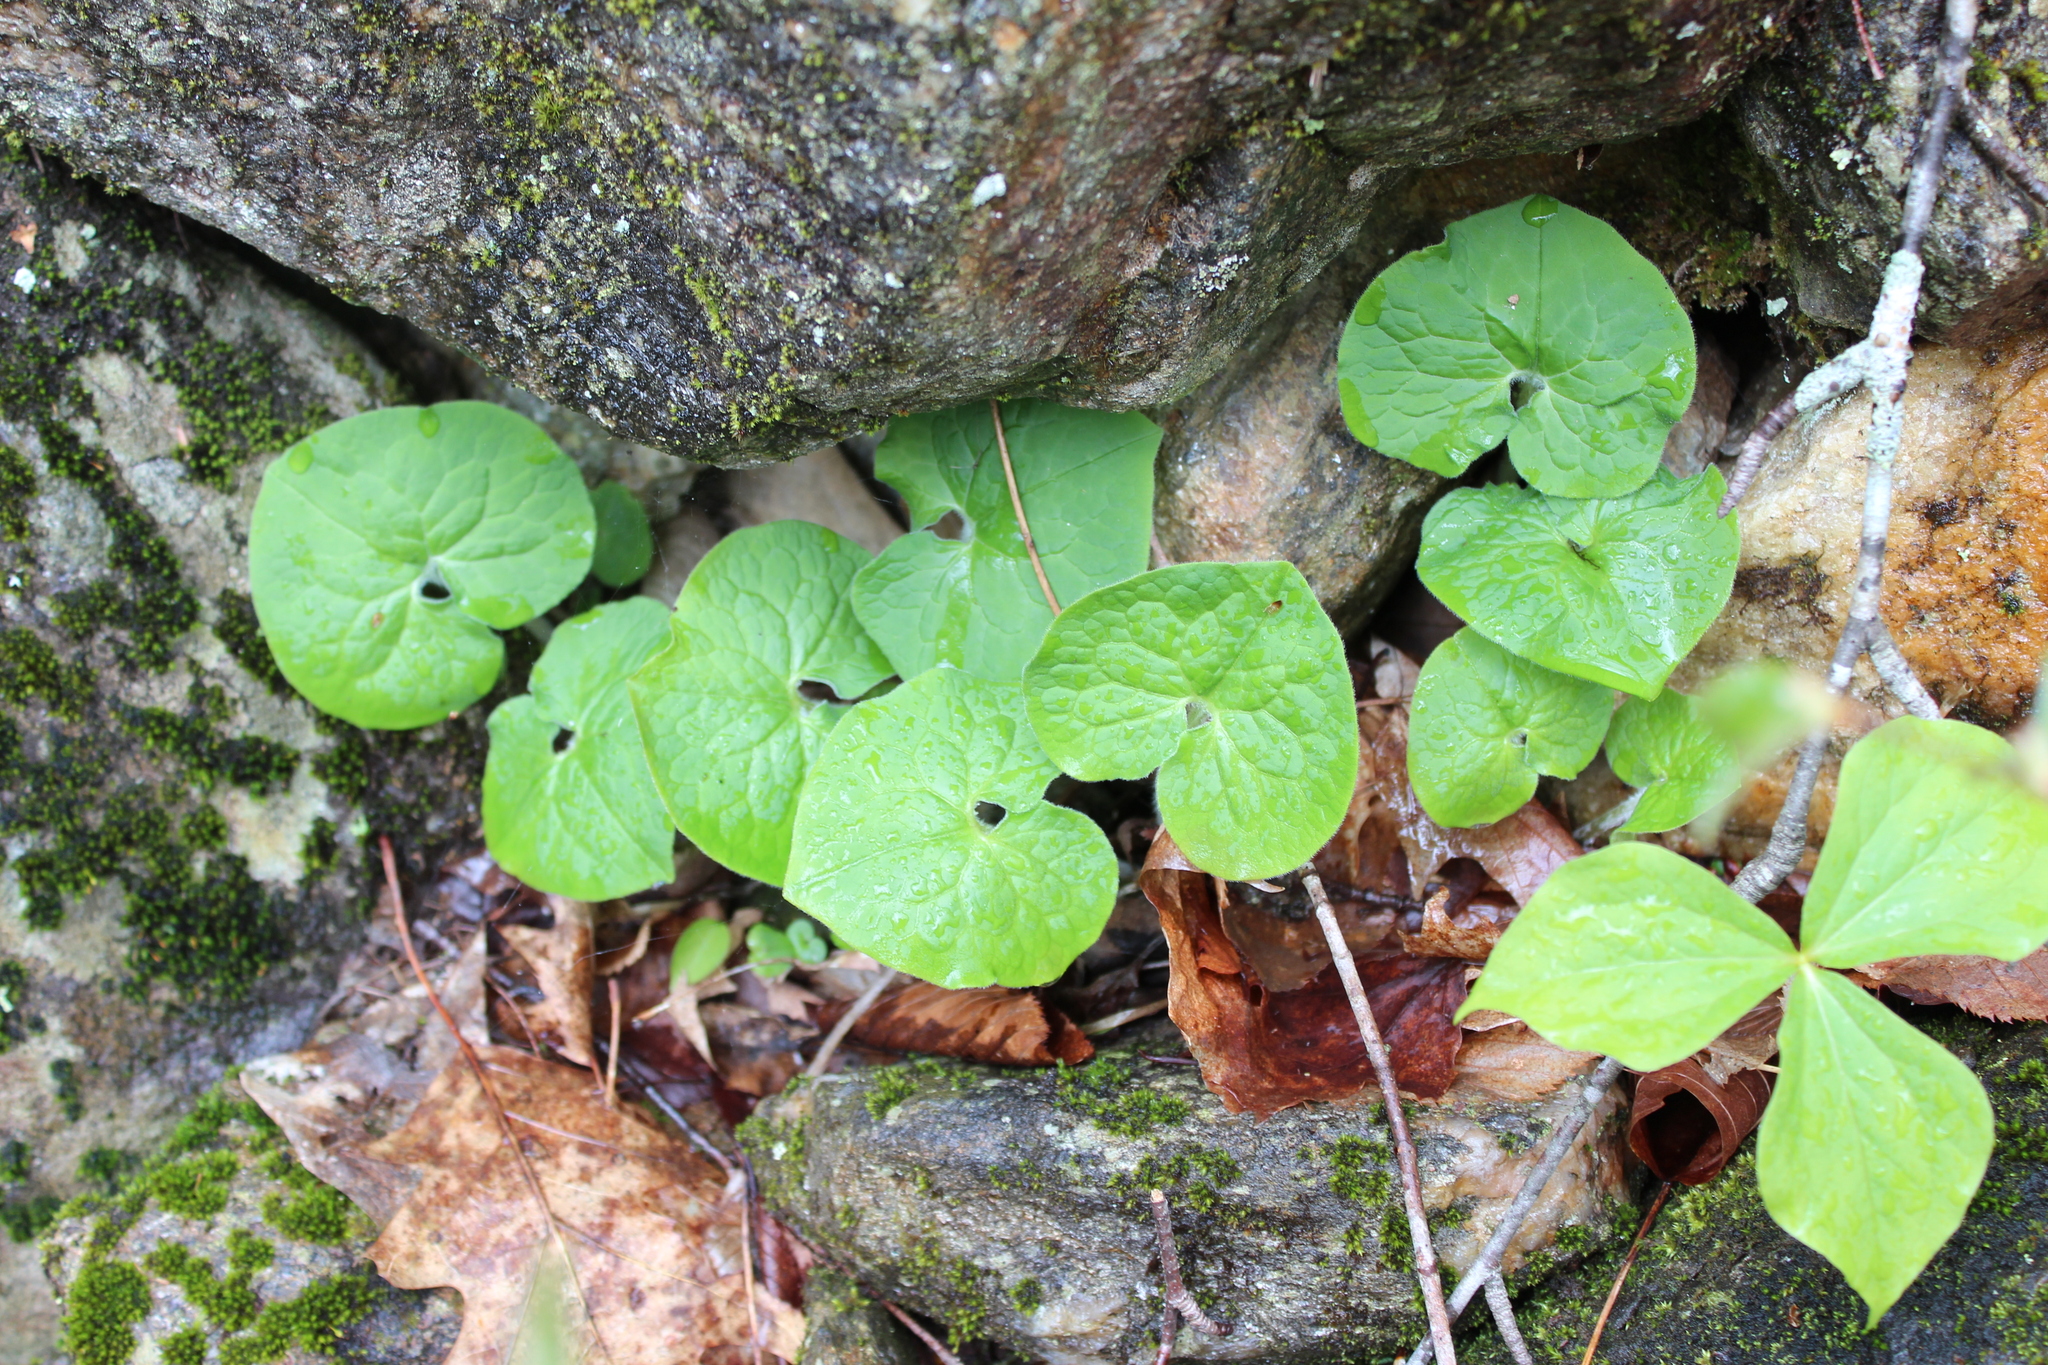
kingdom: Plantae
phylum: Tracheophyta
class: Magnoliopsida
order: Piperales
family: Aristolochiaceae
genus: Asarum
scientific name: Asarum canadense
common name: Wild ginger
